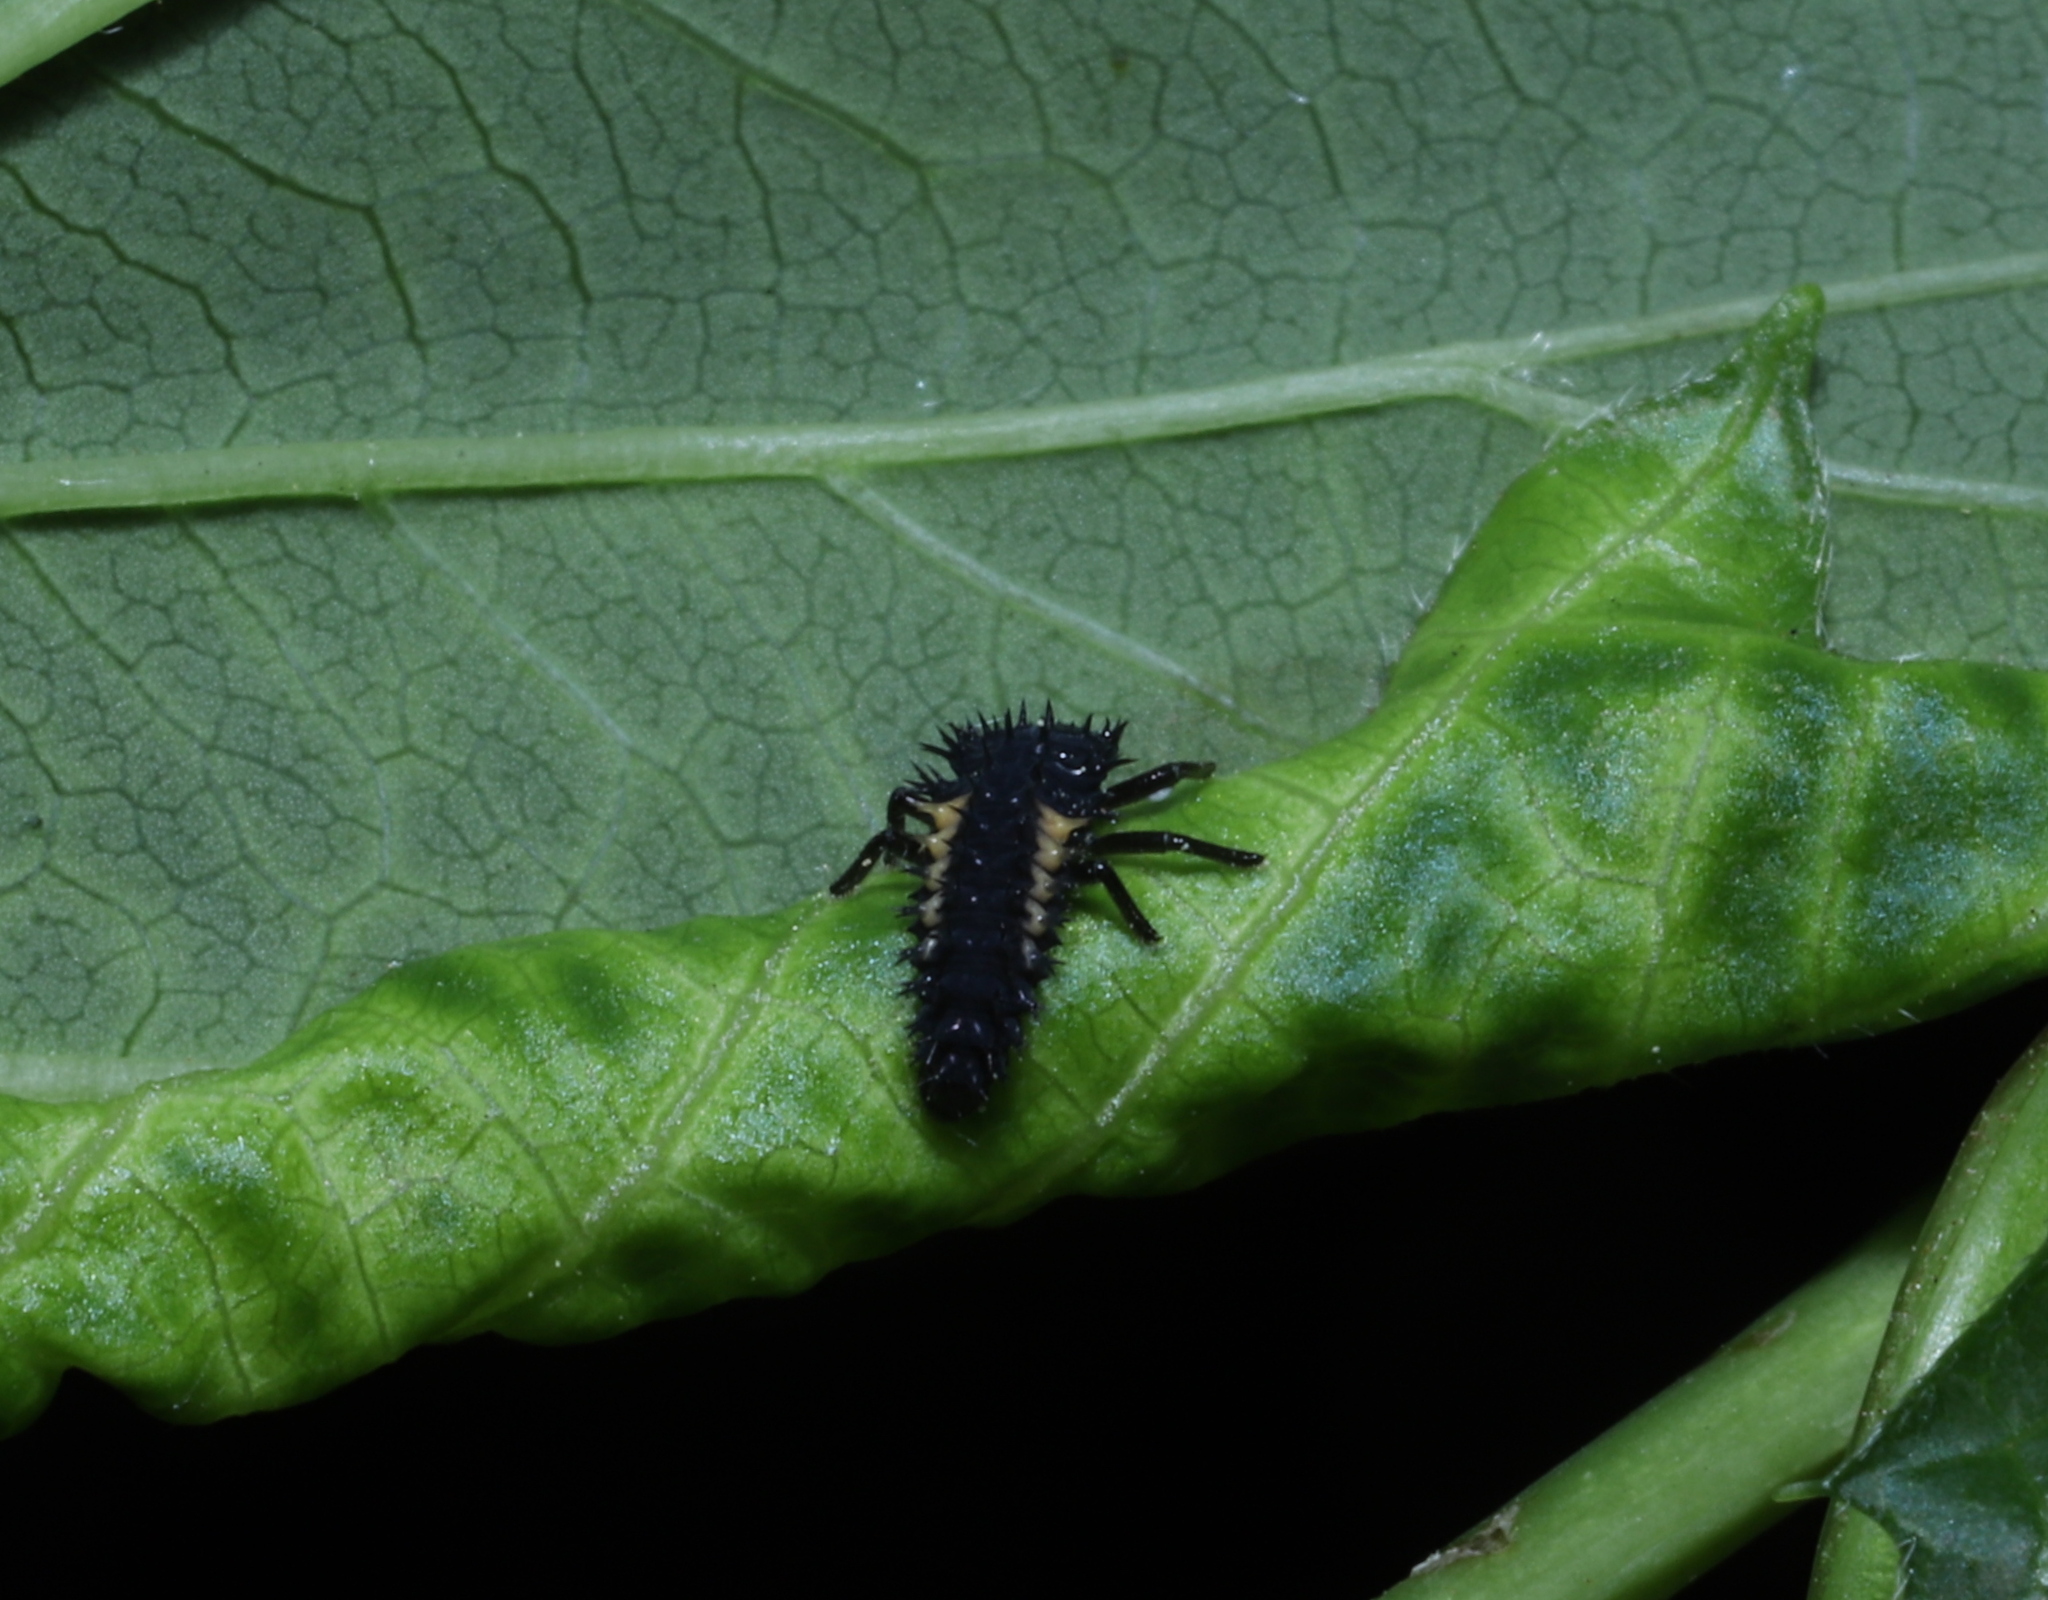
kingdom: Animalia
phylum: Arthropoda
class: Insecta
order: Coleoptera
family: Coccinellidae
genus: Harmonia
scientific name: Harmonia axyridis
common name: Harlequin ladybird
